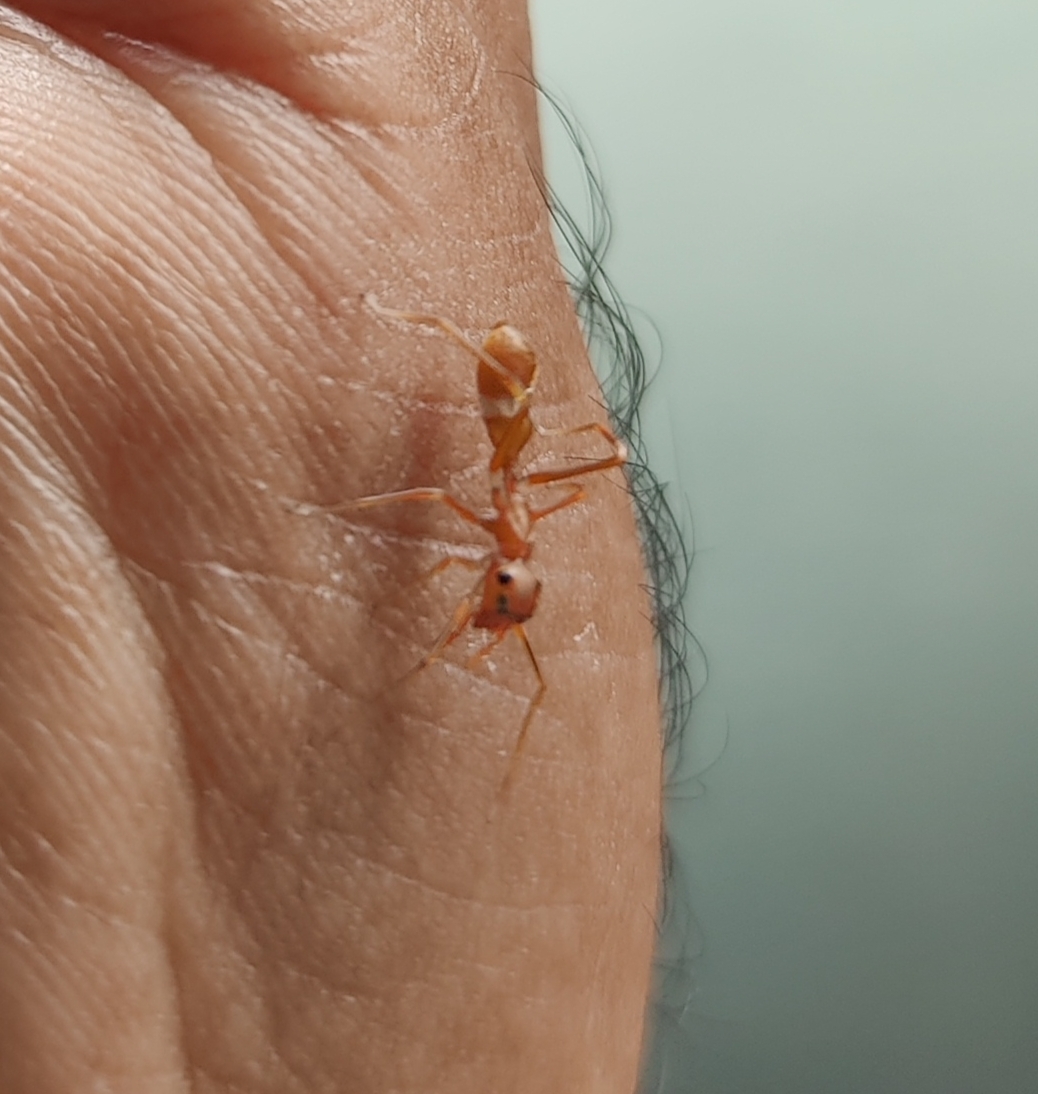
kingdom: Animalia
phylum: Arthropoda
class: Arachnida
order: Araneae
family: Salticidae
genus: Myrmaplata
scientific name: Myrmaplata plataleoides
